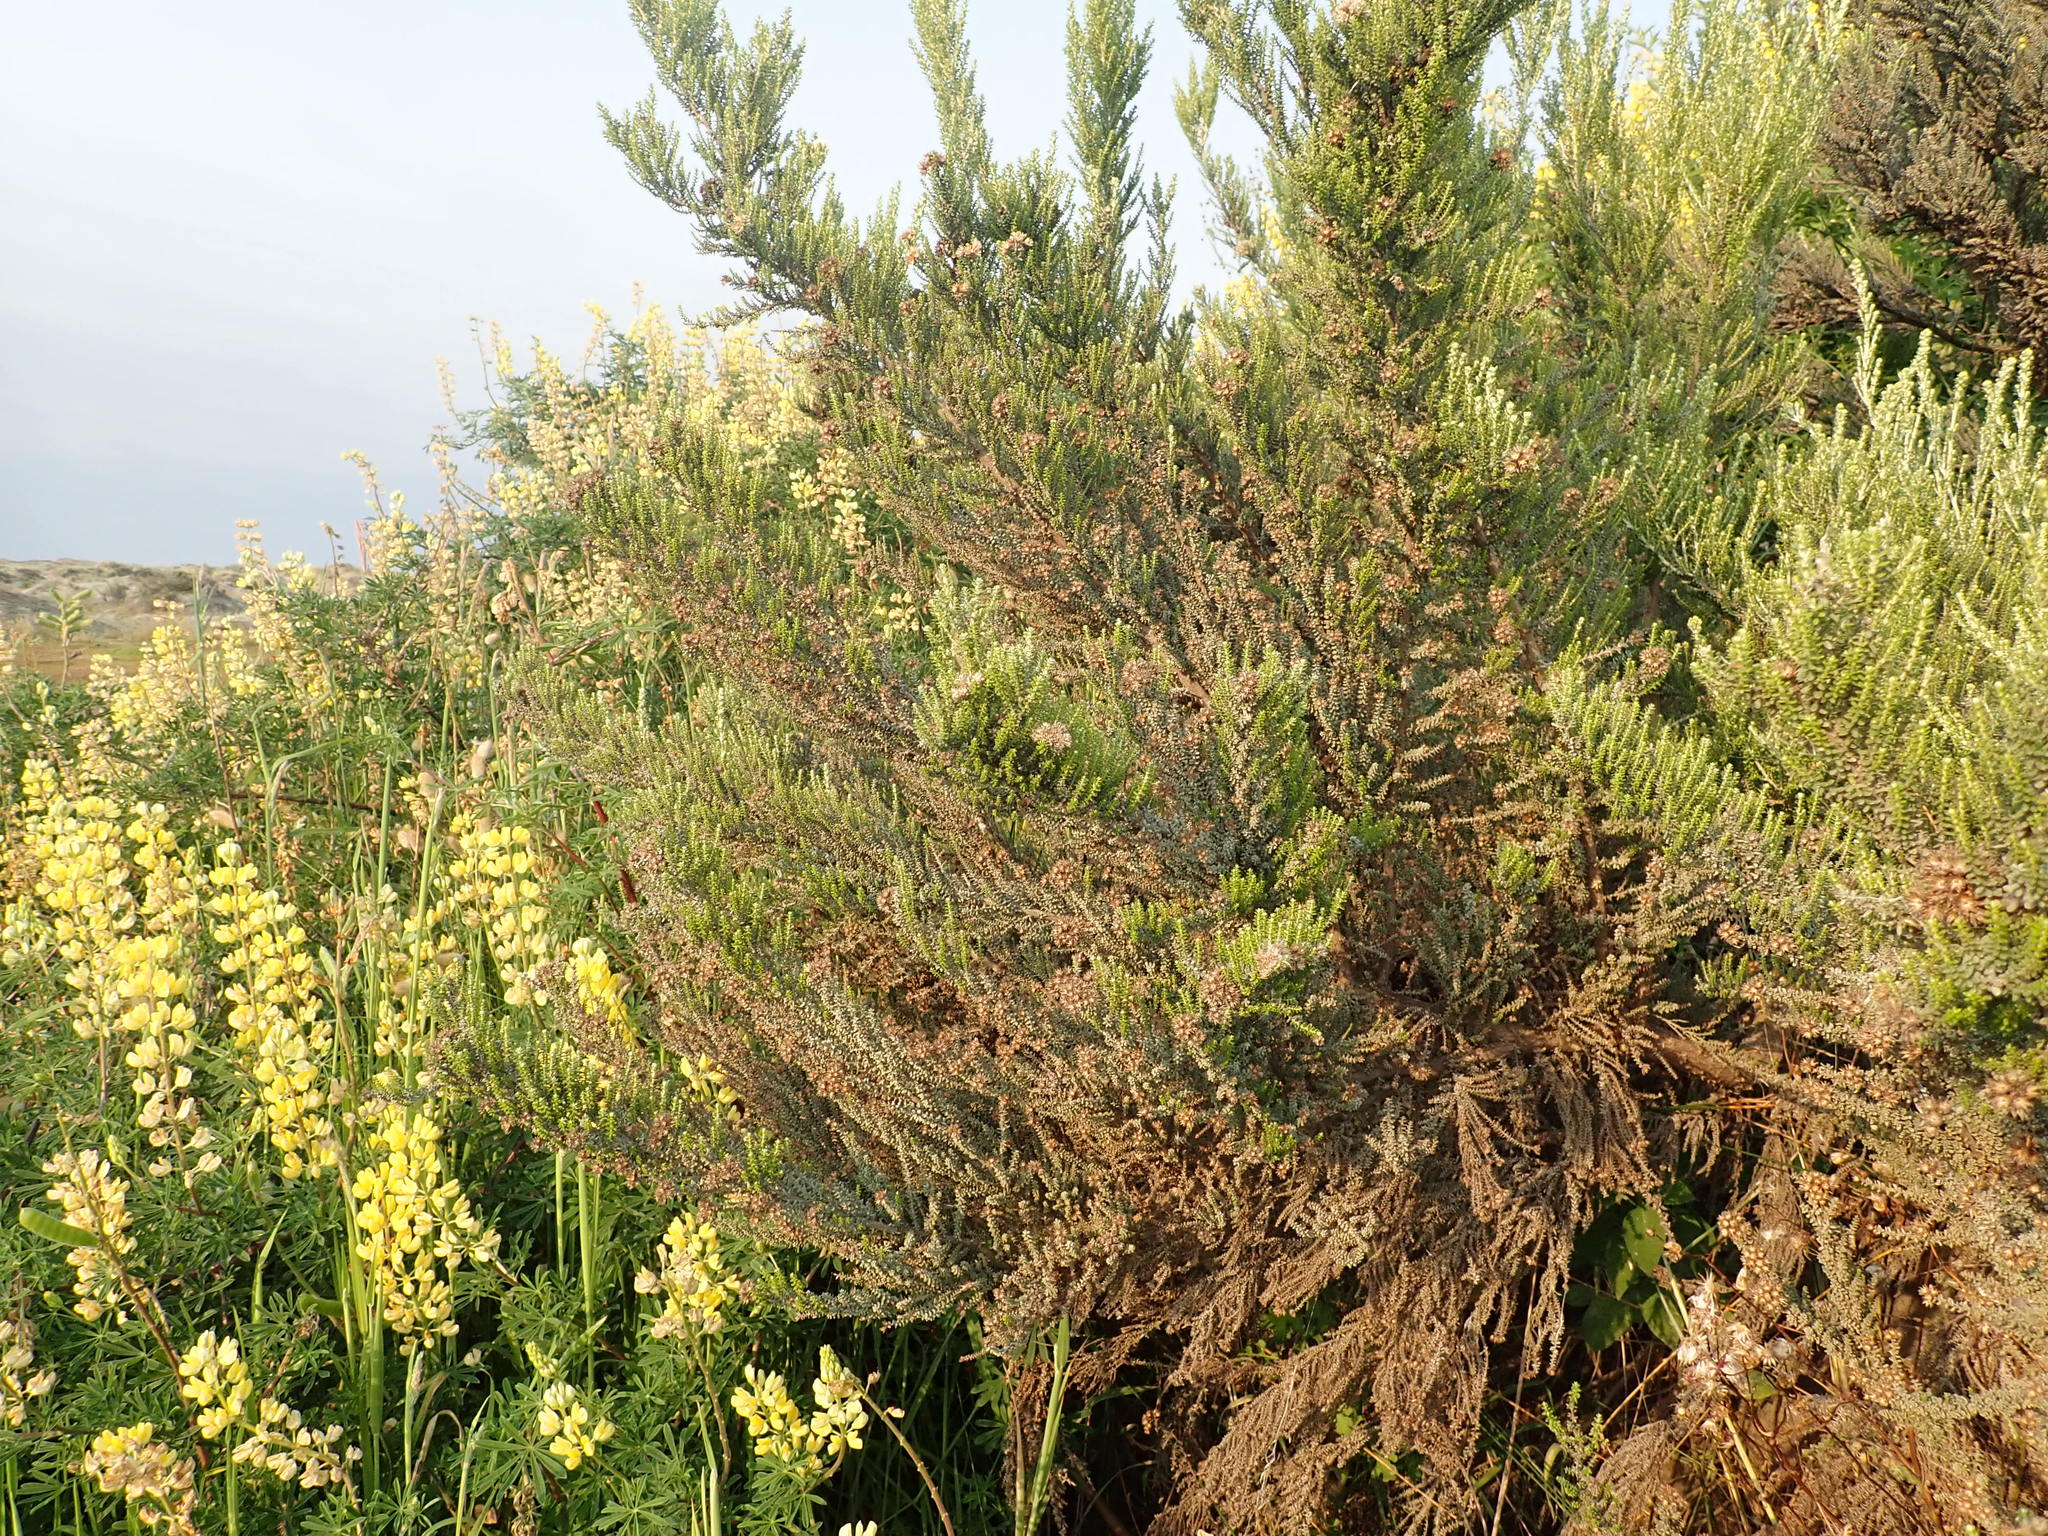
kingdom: Plantae
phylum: Tracheophyta
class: Magnoliopsida
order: Asterales
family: Asteraceae
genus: Ozothamnus
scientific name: Ozothamnus leptophyllus
